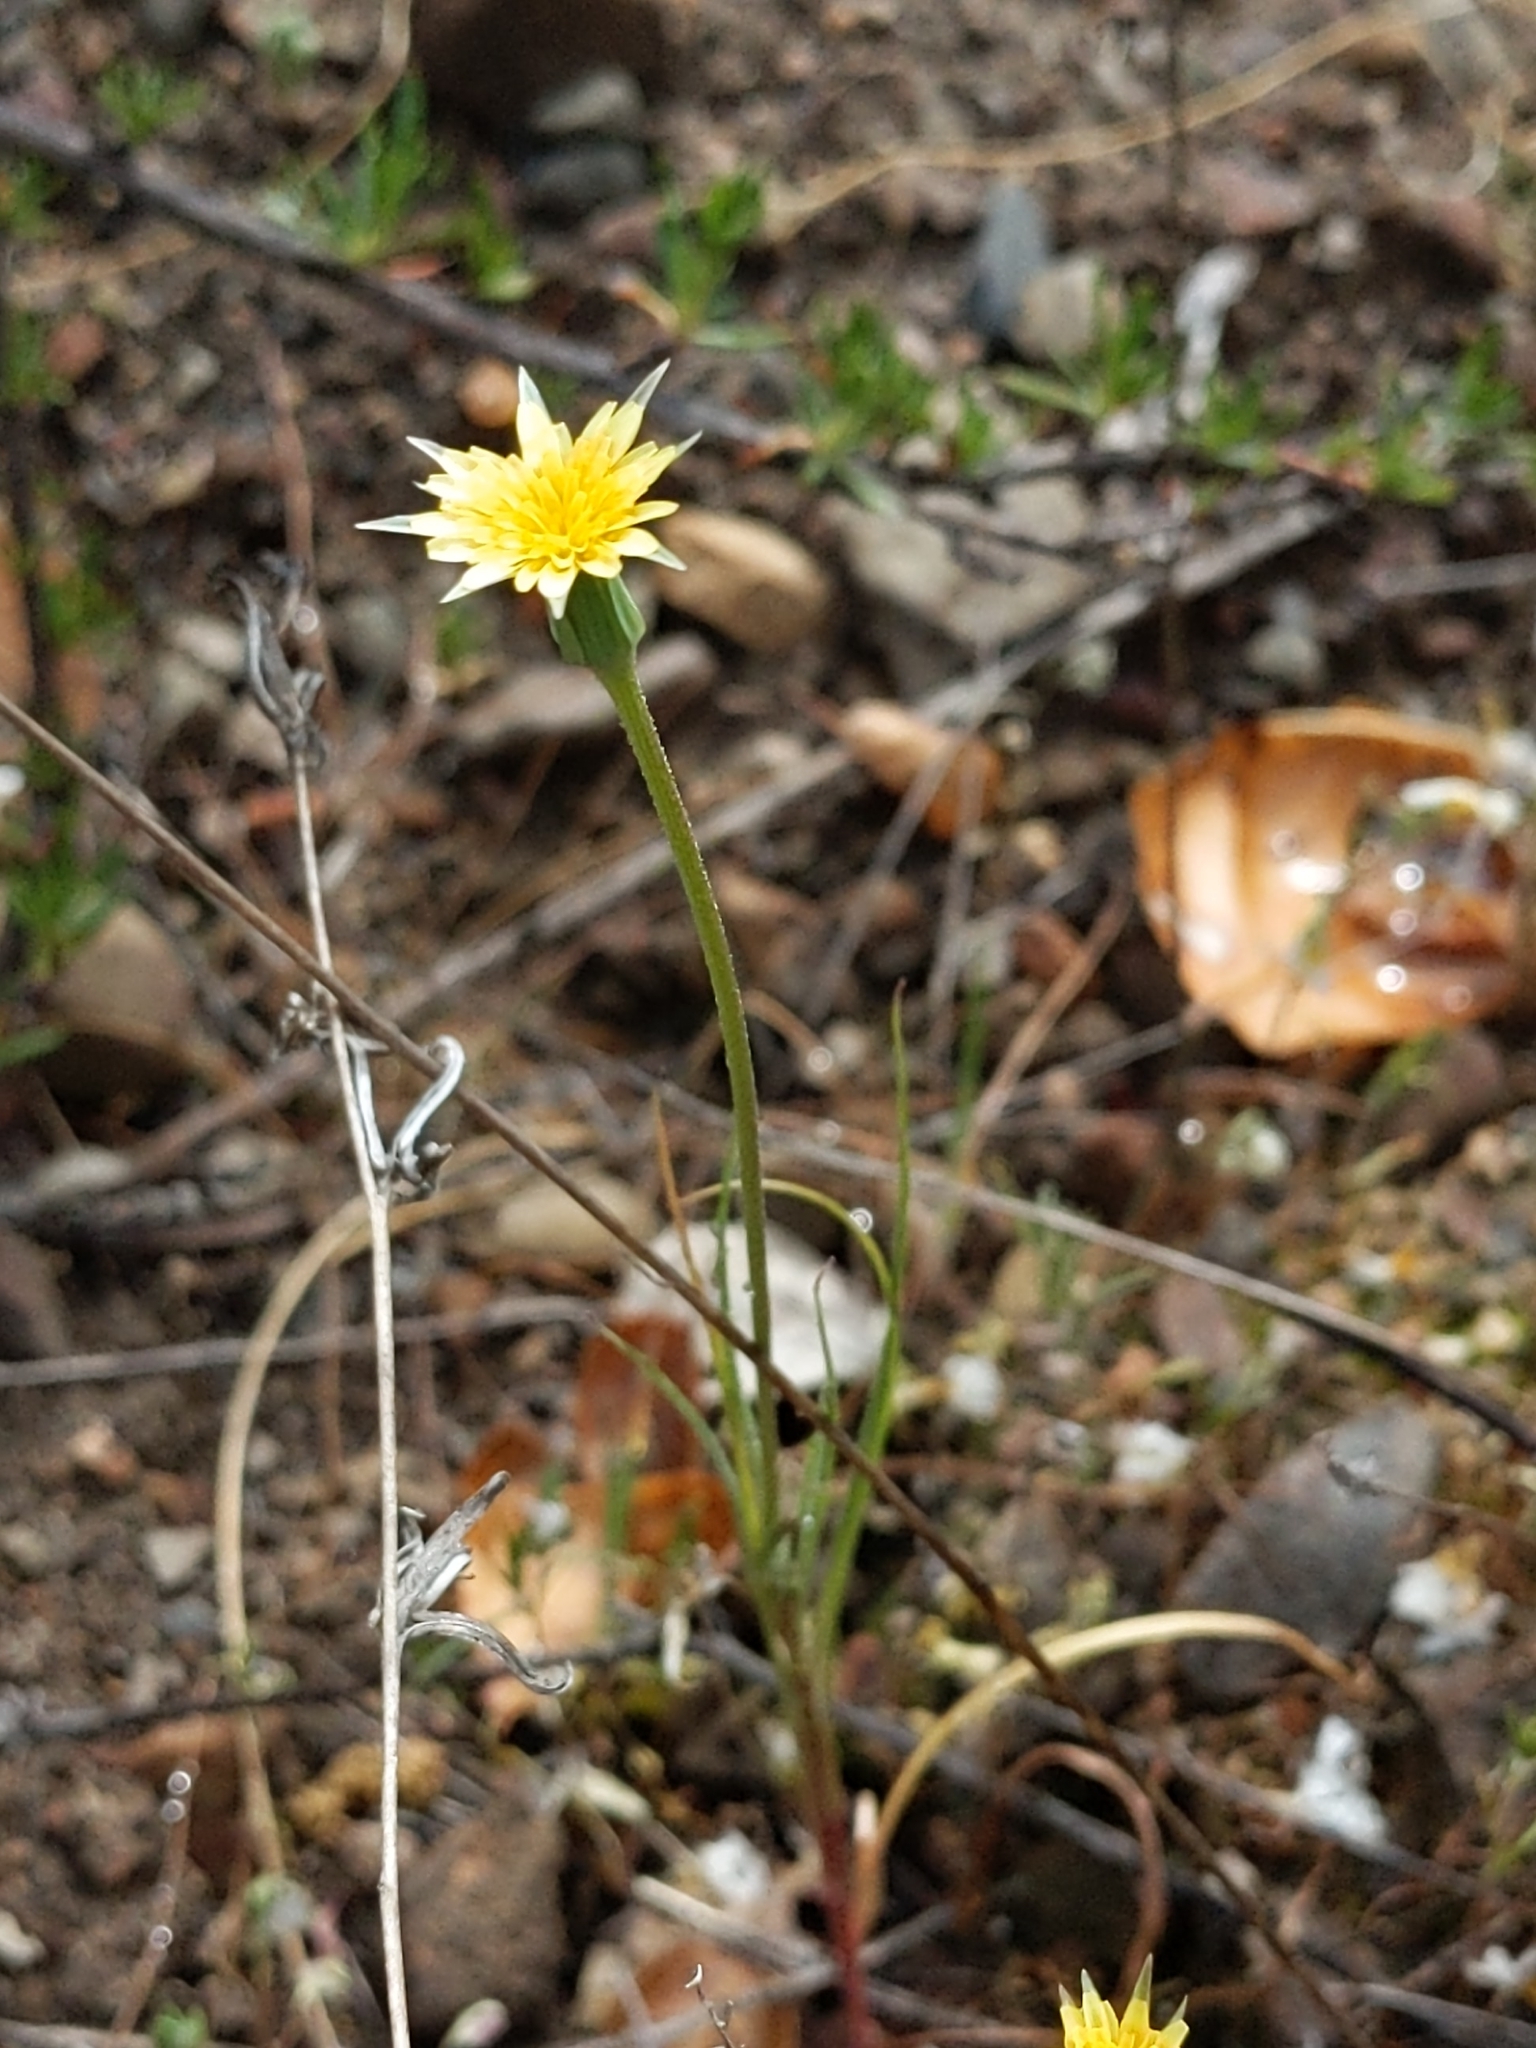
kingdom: Plantae
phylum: Tracheophyta
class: Magnoliopsida
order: Asterales
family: Asteraceae
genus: Microseris
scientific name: Microseris lindleyi
